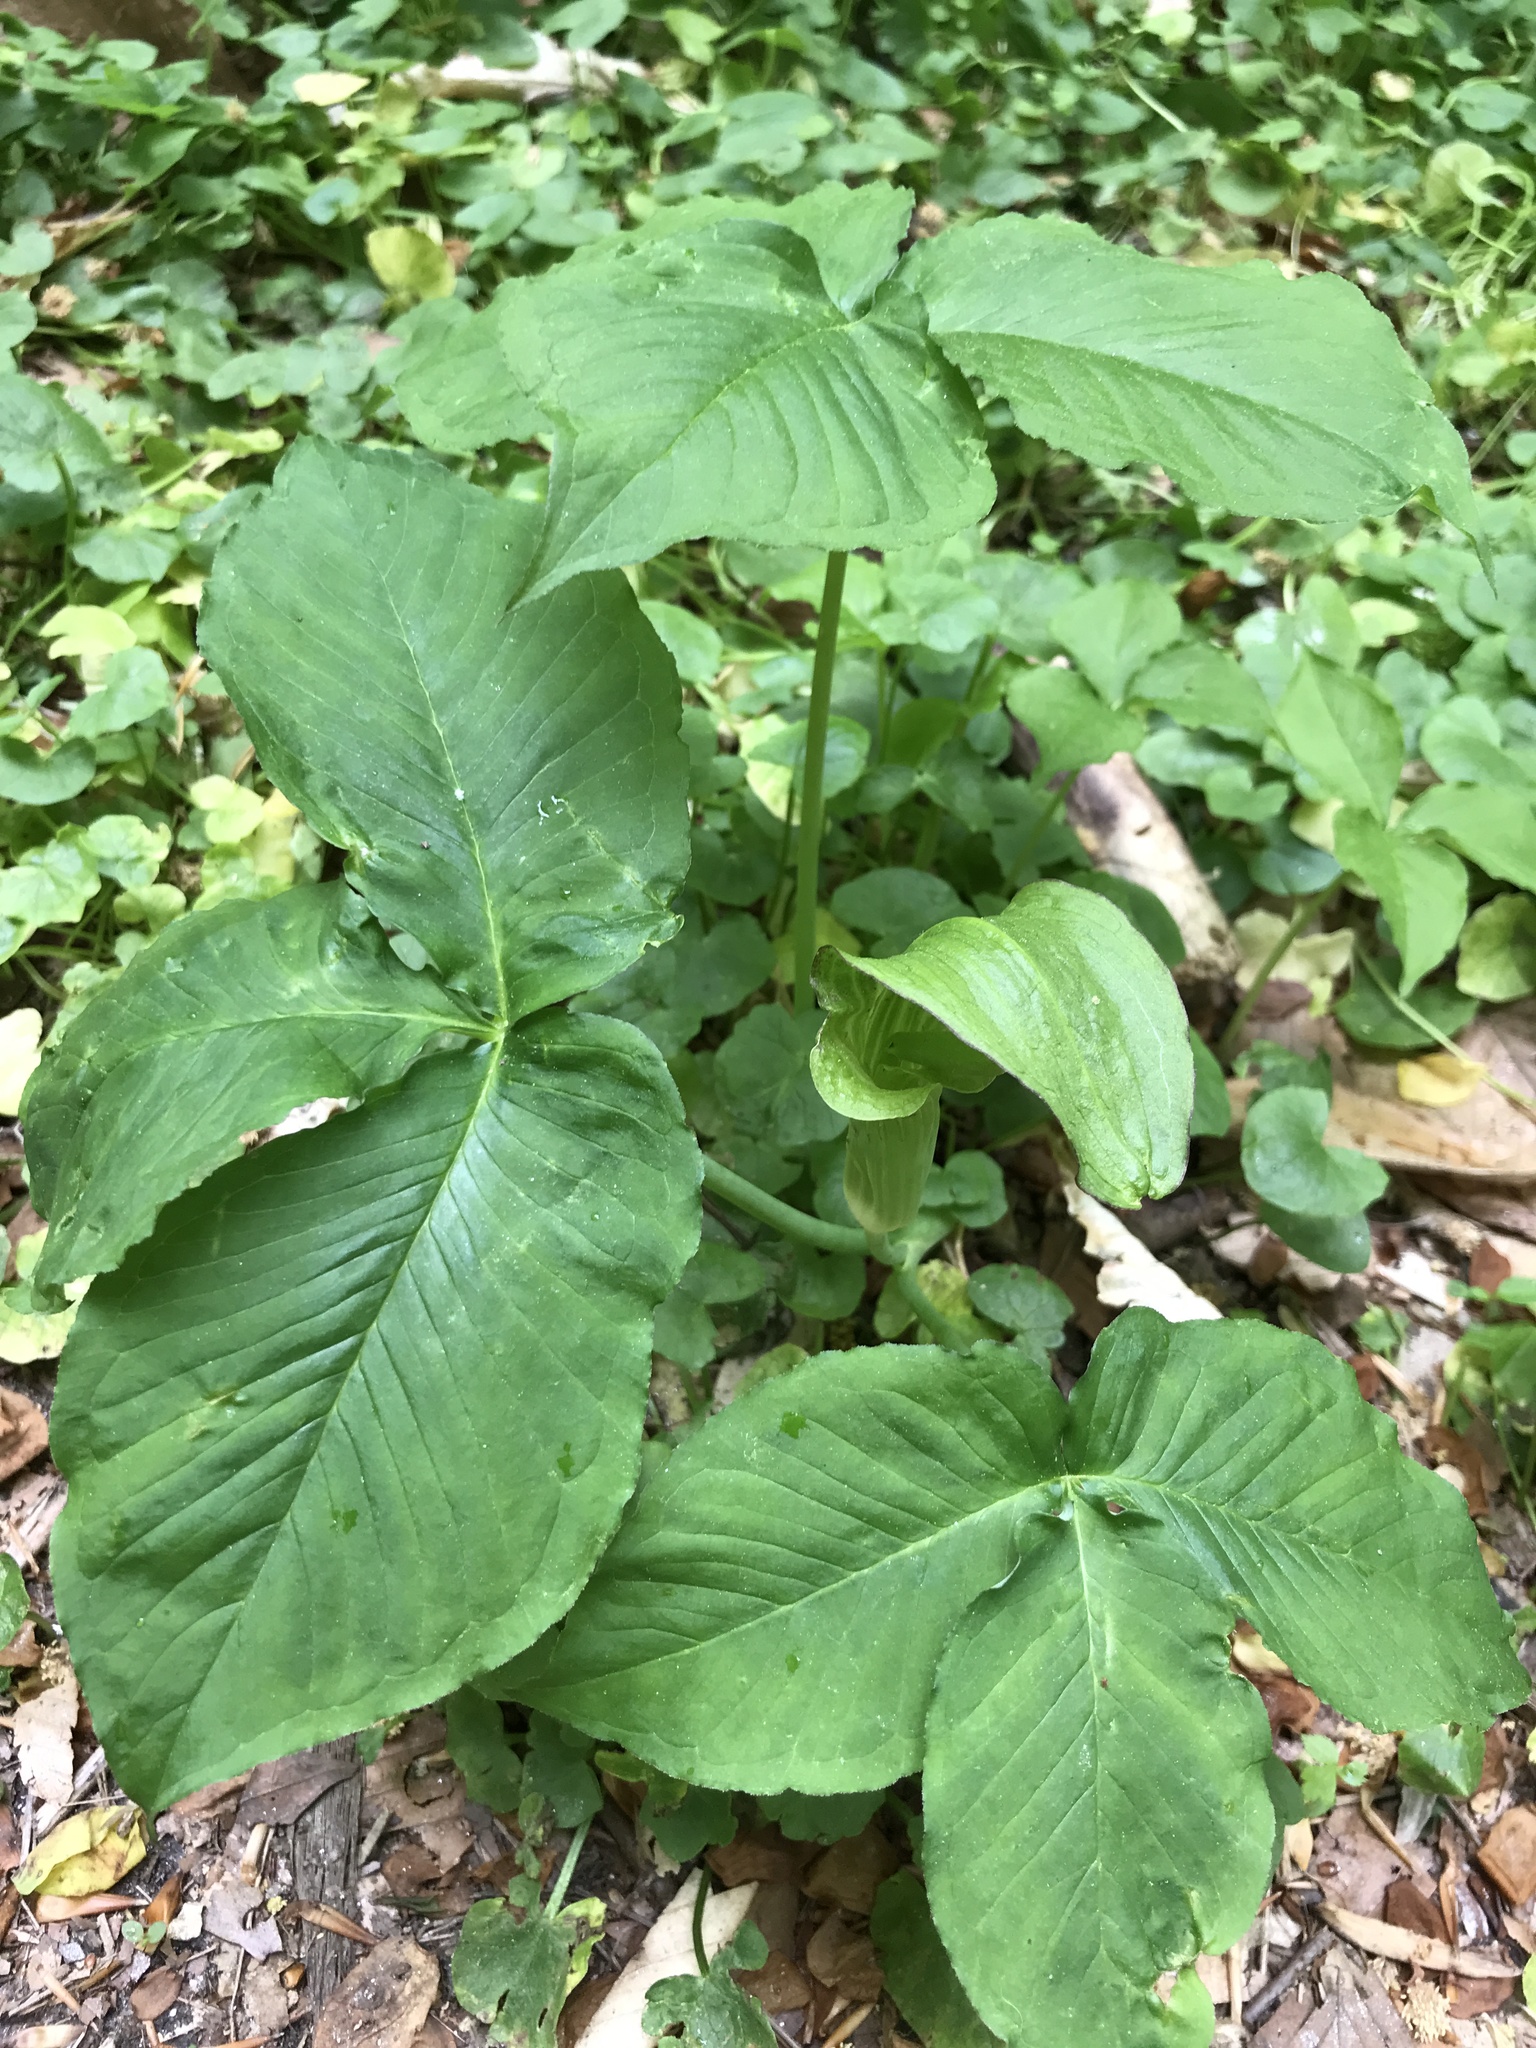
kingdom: Plantae
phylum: Tracheophyta
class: Liliopsida
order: Alismatales
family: Araceae
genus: Arisaema
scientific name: Arisaema triphyllum
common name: Jack-in-the-pulpit
